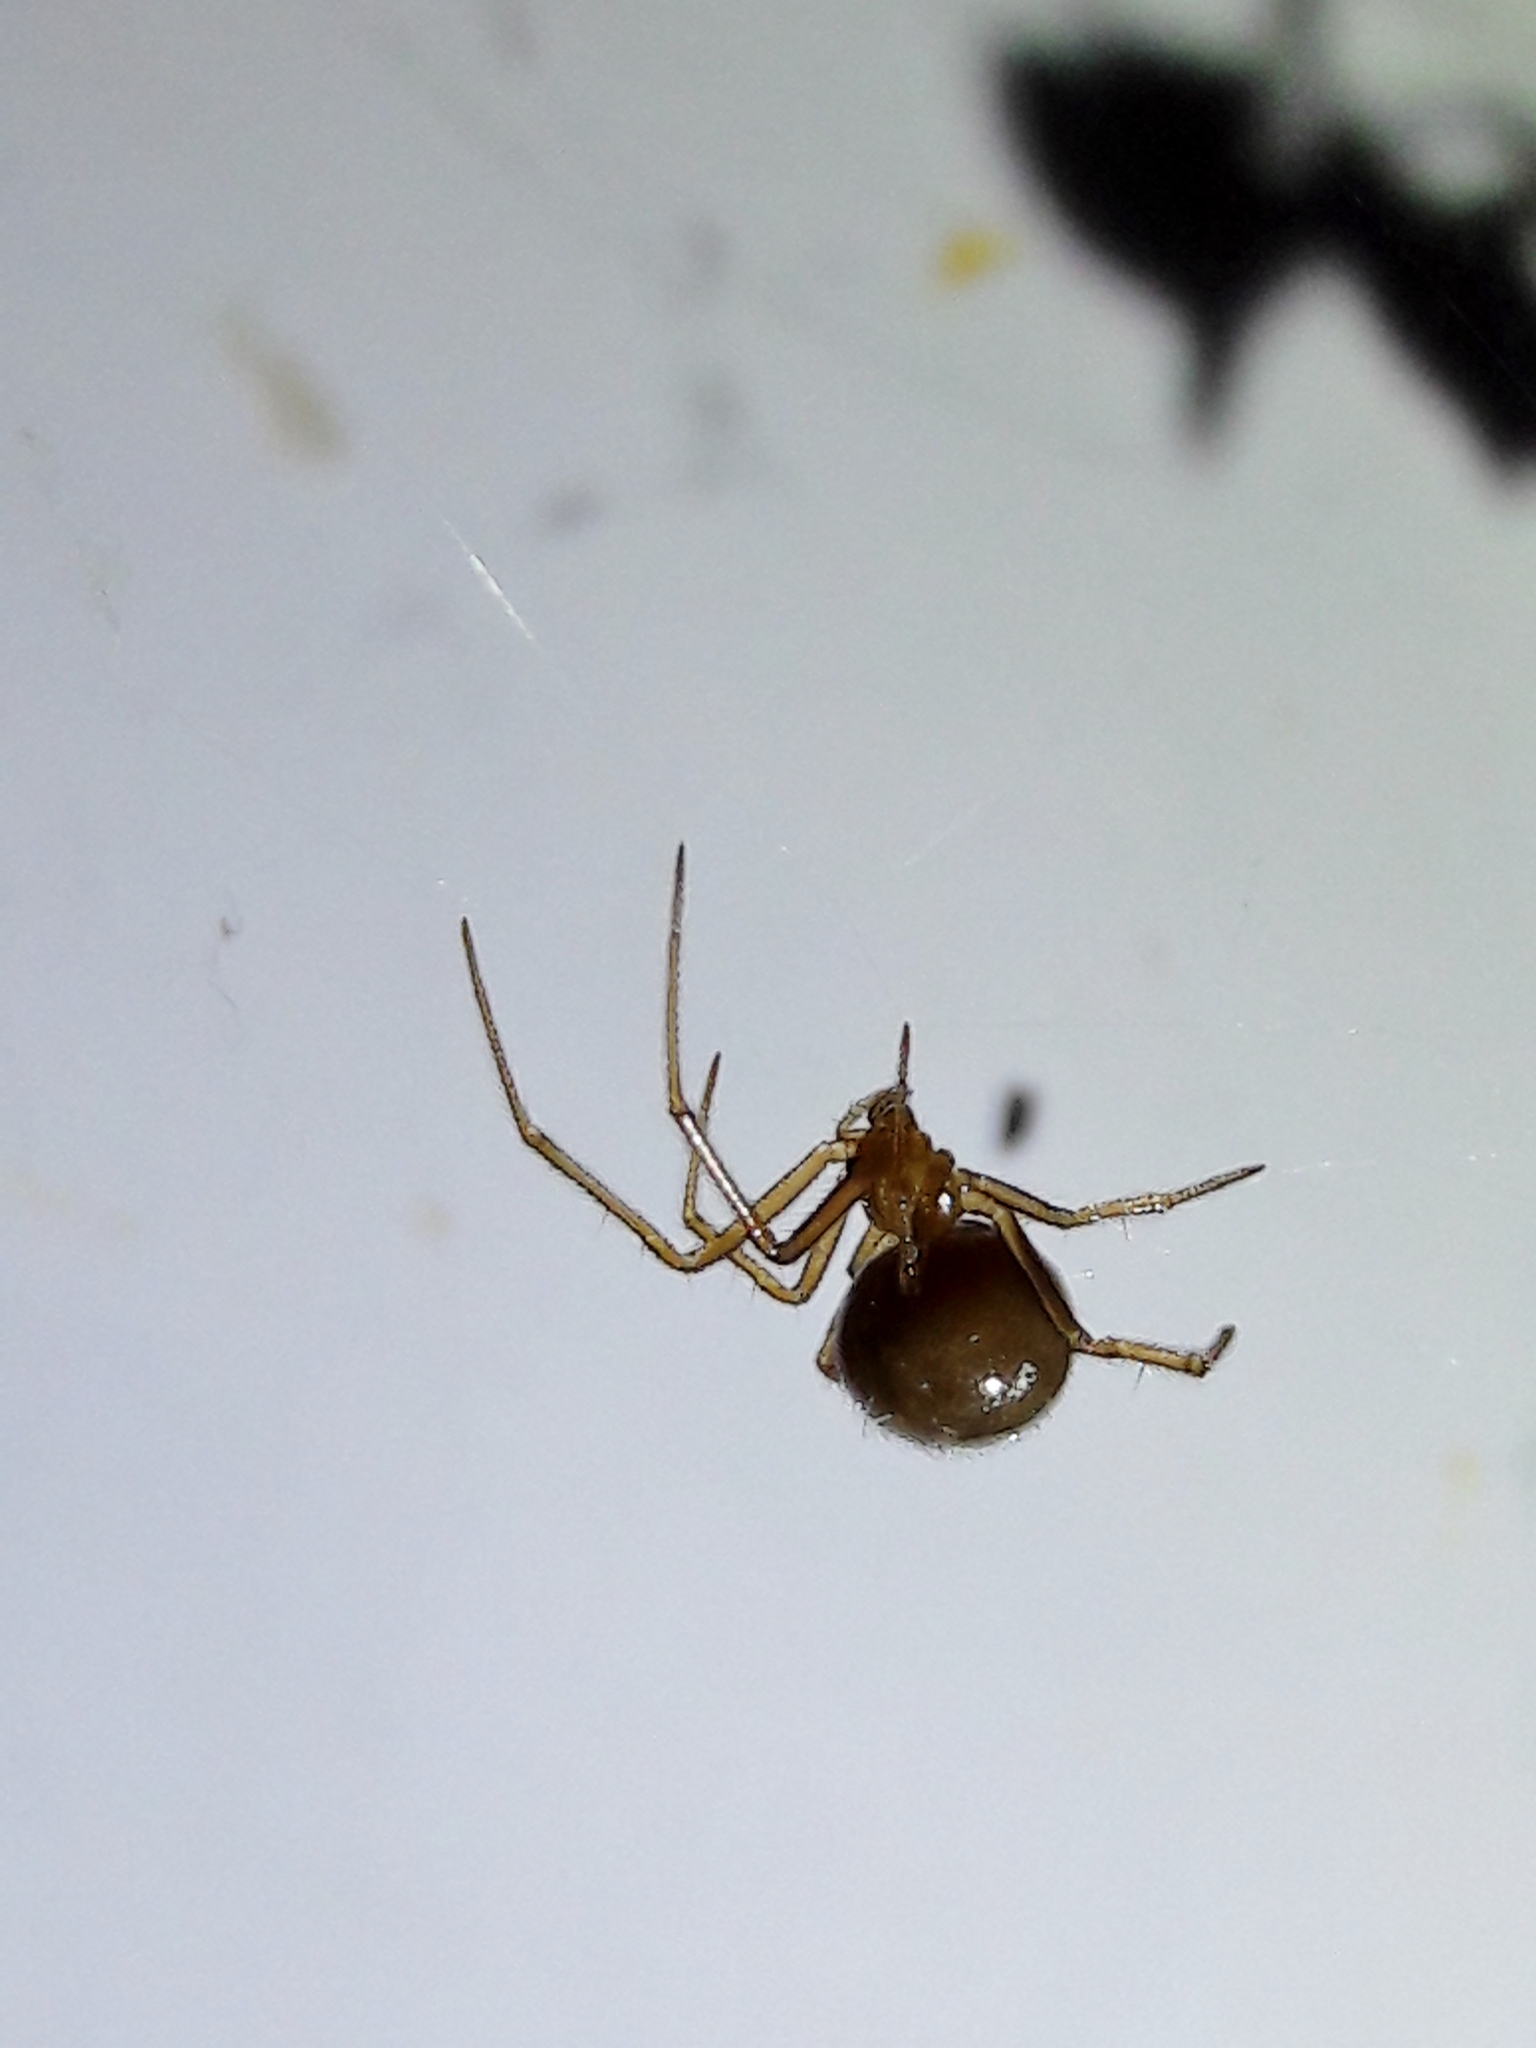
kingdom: Animalia
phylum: Arthropoda
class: Arachnida
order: Araneae
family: Theridiidae
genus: Nesticodes
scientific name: Nesticodes rufipes
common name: Cobweb spiders
